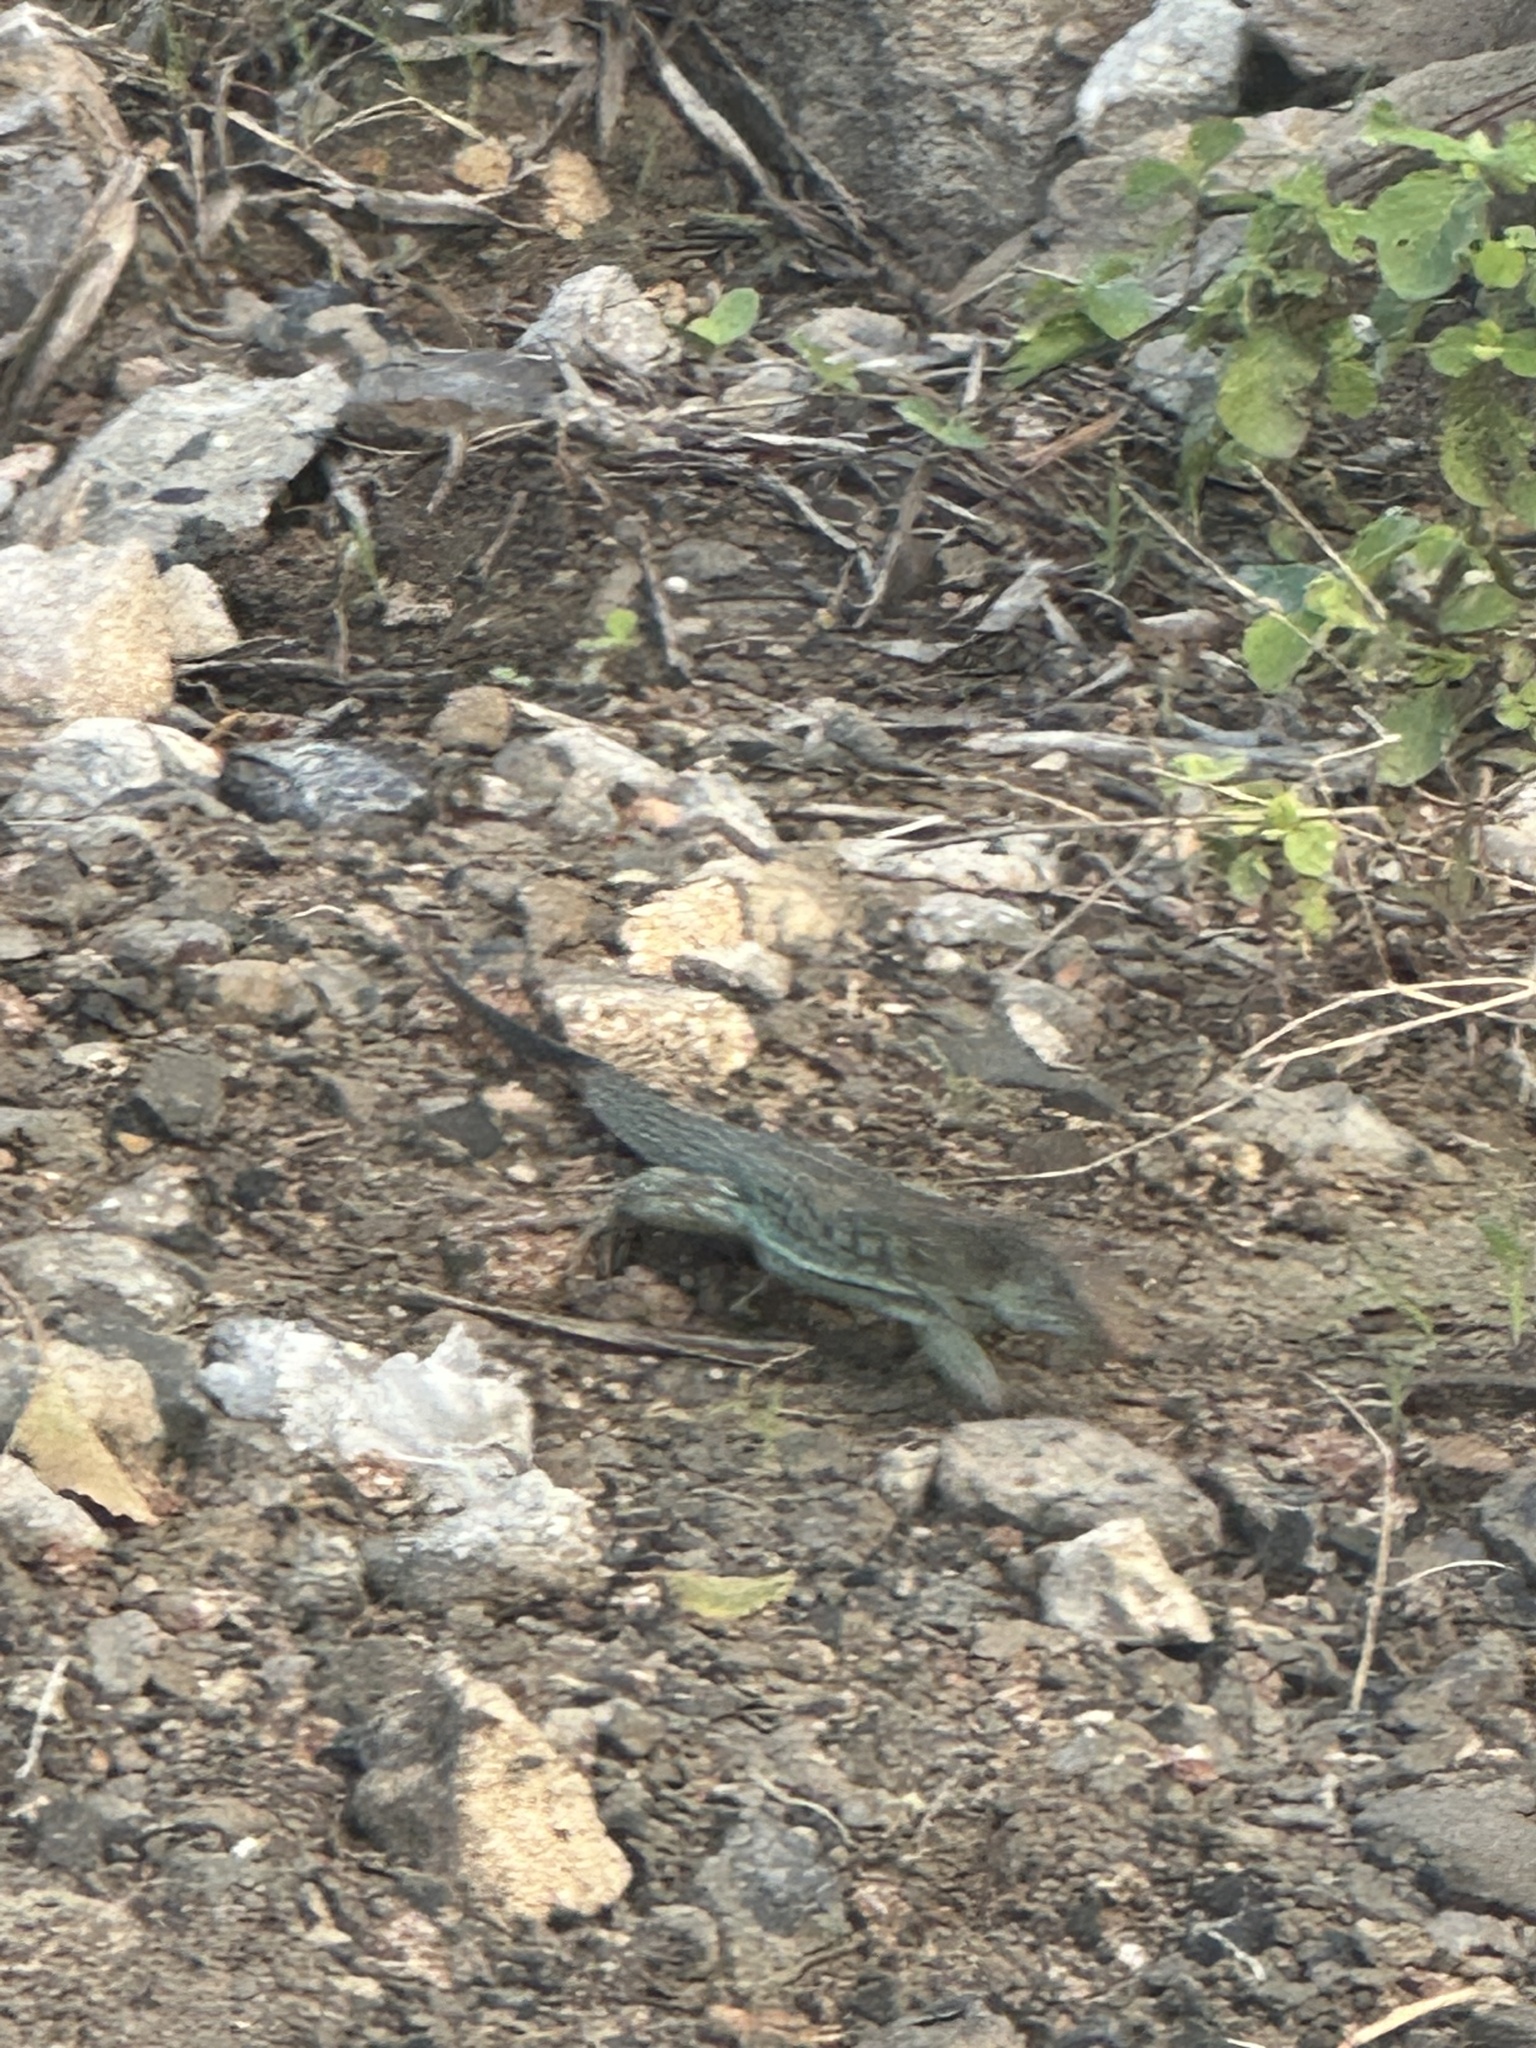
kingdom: Animalia
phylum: Chordata
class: Squamata
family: Teiidae
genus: Pholidoscelis
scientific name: Pholidoscelis plei
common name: Anguilla bank ameiva
